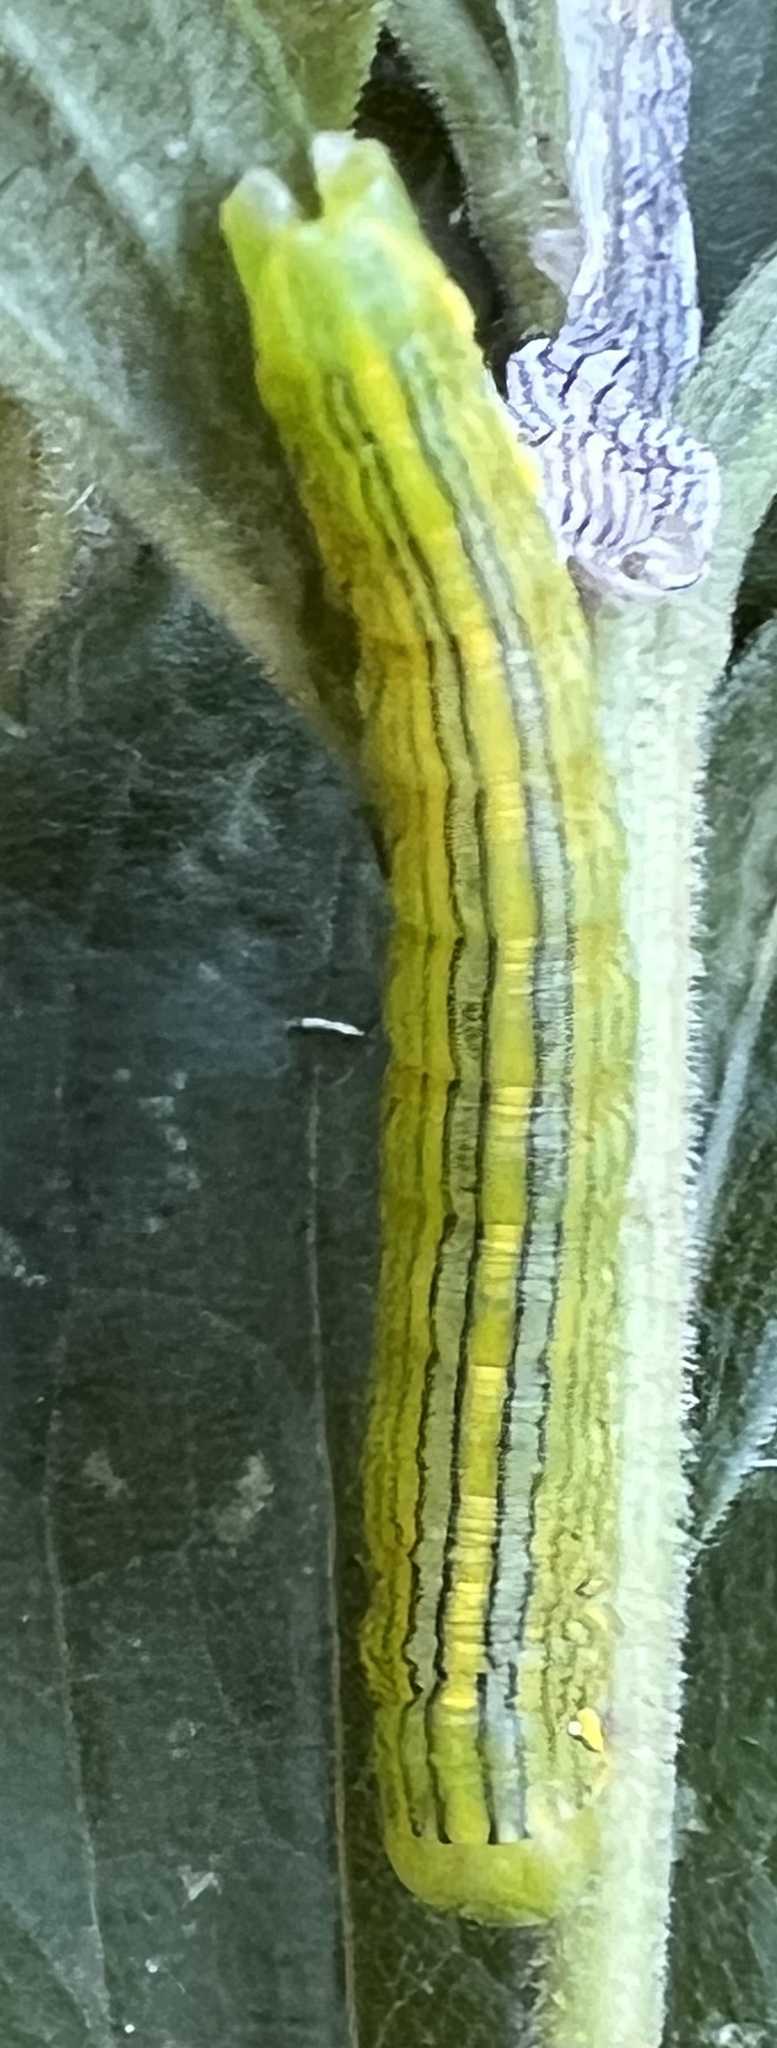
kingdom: Animalia
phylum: Arthropoda
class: Insecta
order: Lepidoptera
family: Noctuidae
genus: Cucullia
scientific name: Cucullia asteroides
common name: Asteroid moth
